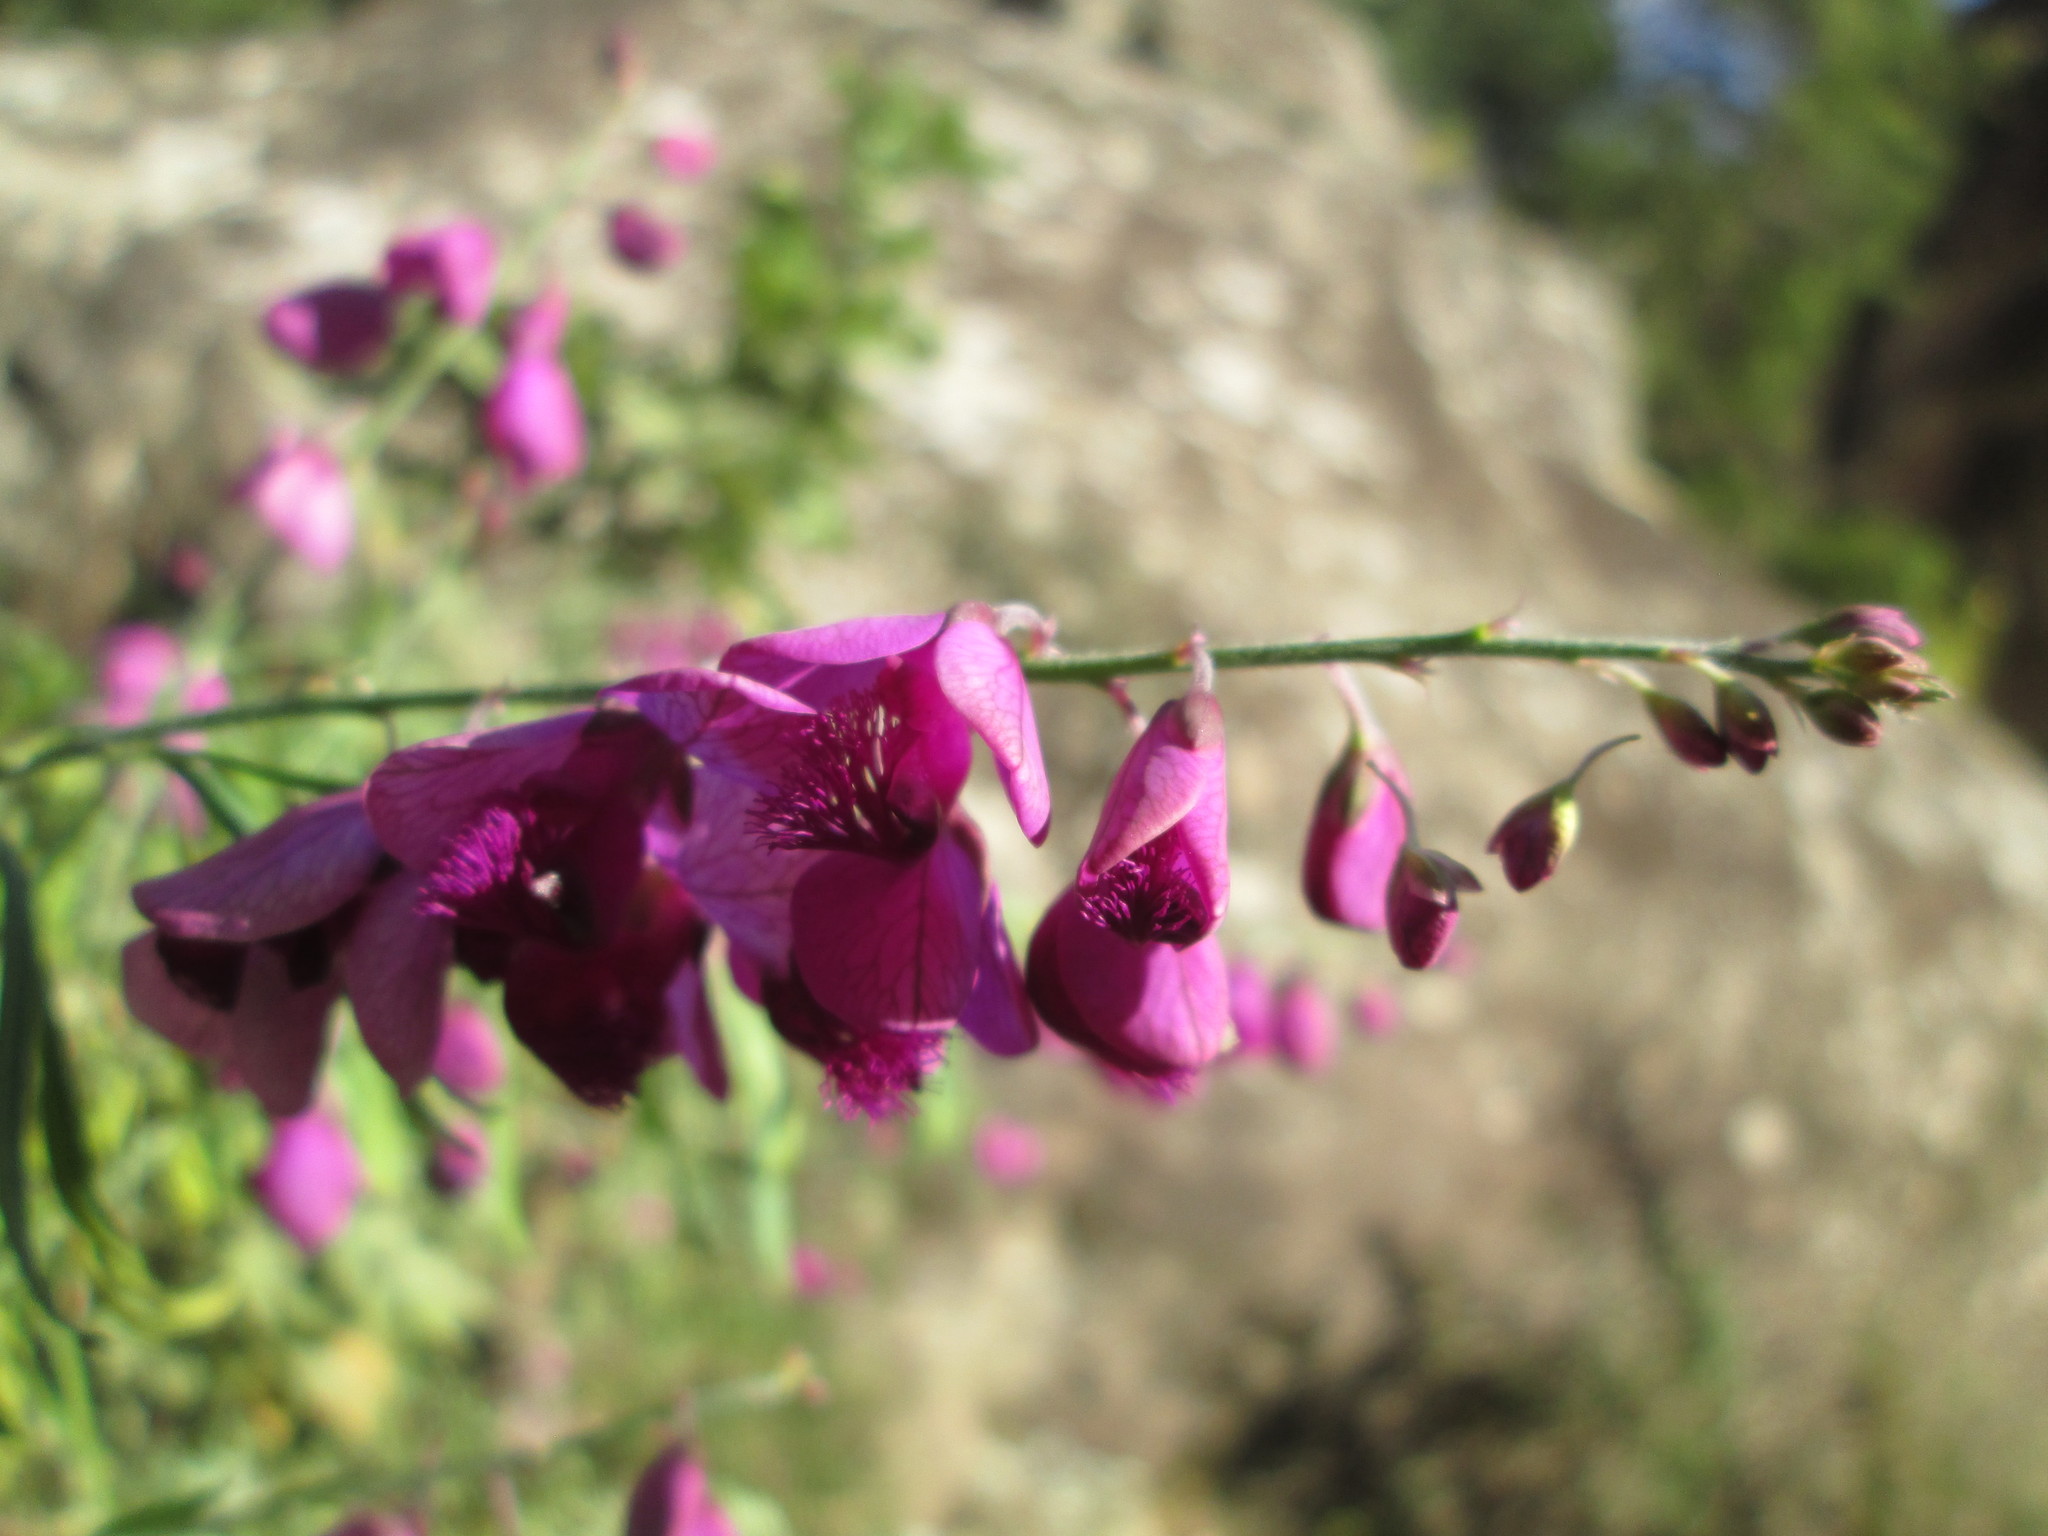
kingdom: Plantae
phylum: Tracheophyta
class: Magnoliopsida
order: Fabales
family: Polygalaceae
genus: Polygala
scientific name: Polygala virgata
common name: Milkwort
